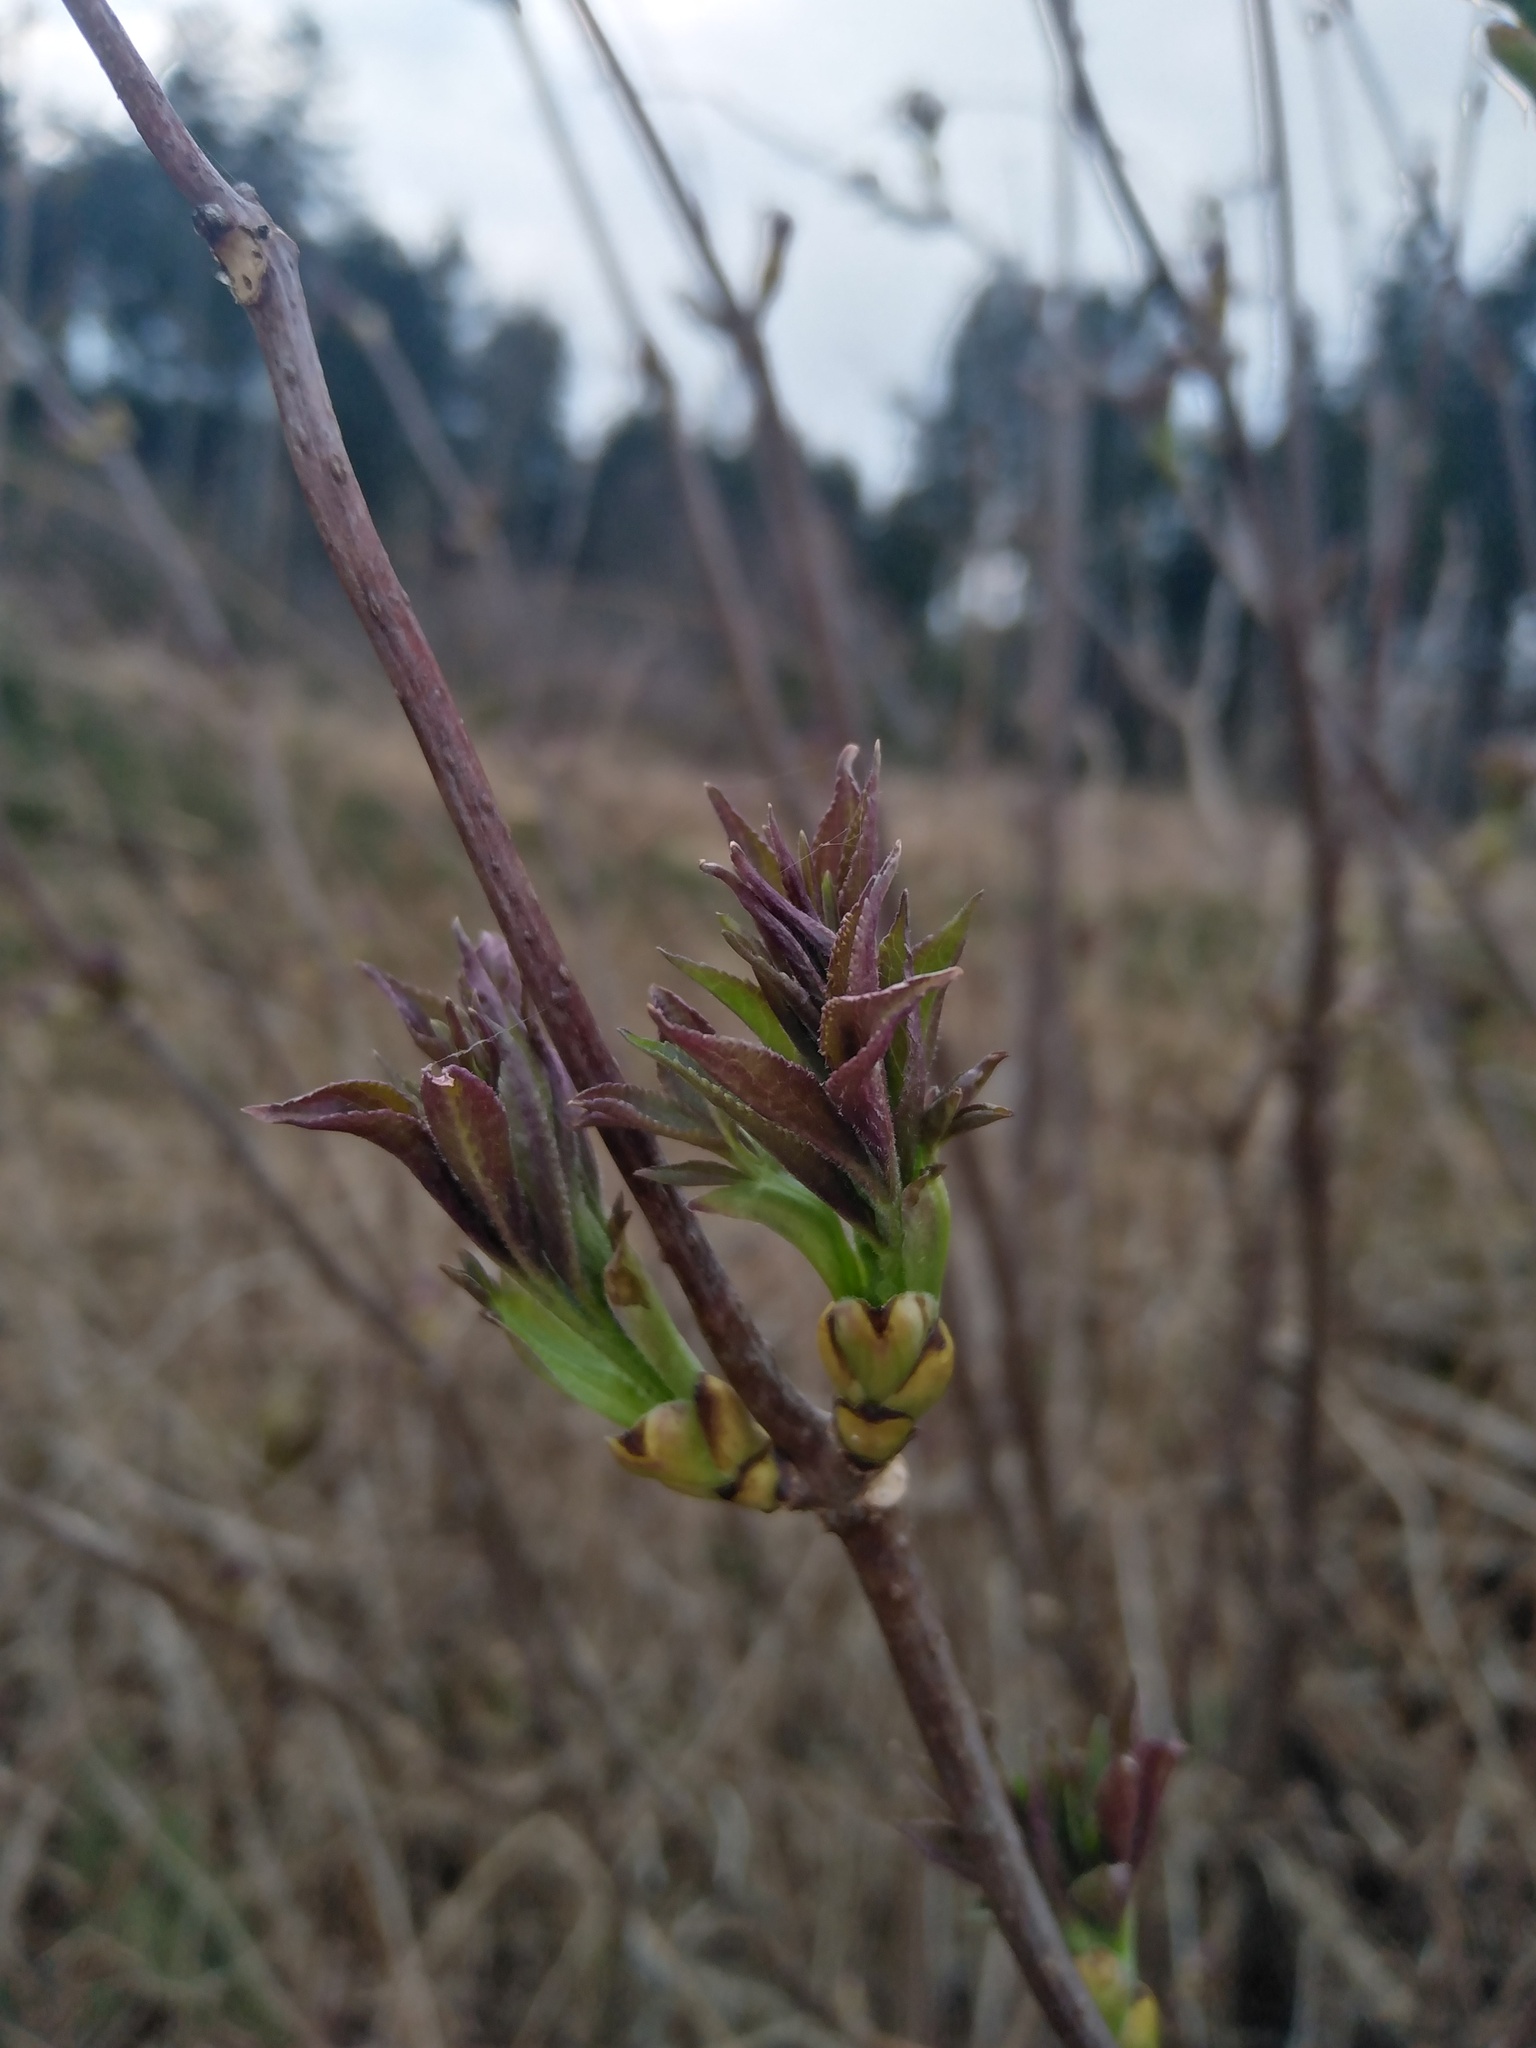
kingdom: Plantae
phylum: Tracheophyta
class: Magnoliopsida
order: Dipsacales
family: Viburnaceae
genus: Sambucus
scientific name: Sambucus racemosa
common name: Red-berried elder
